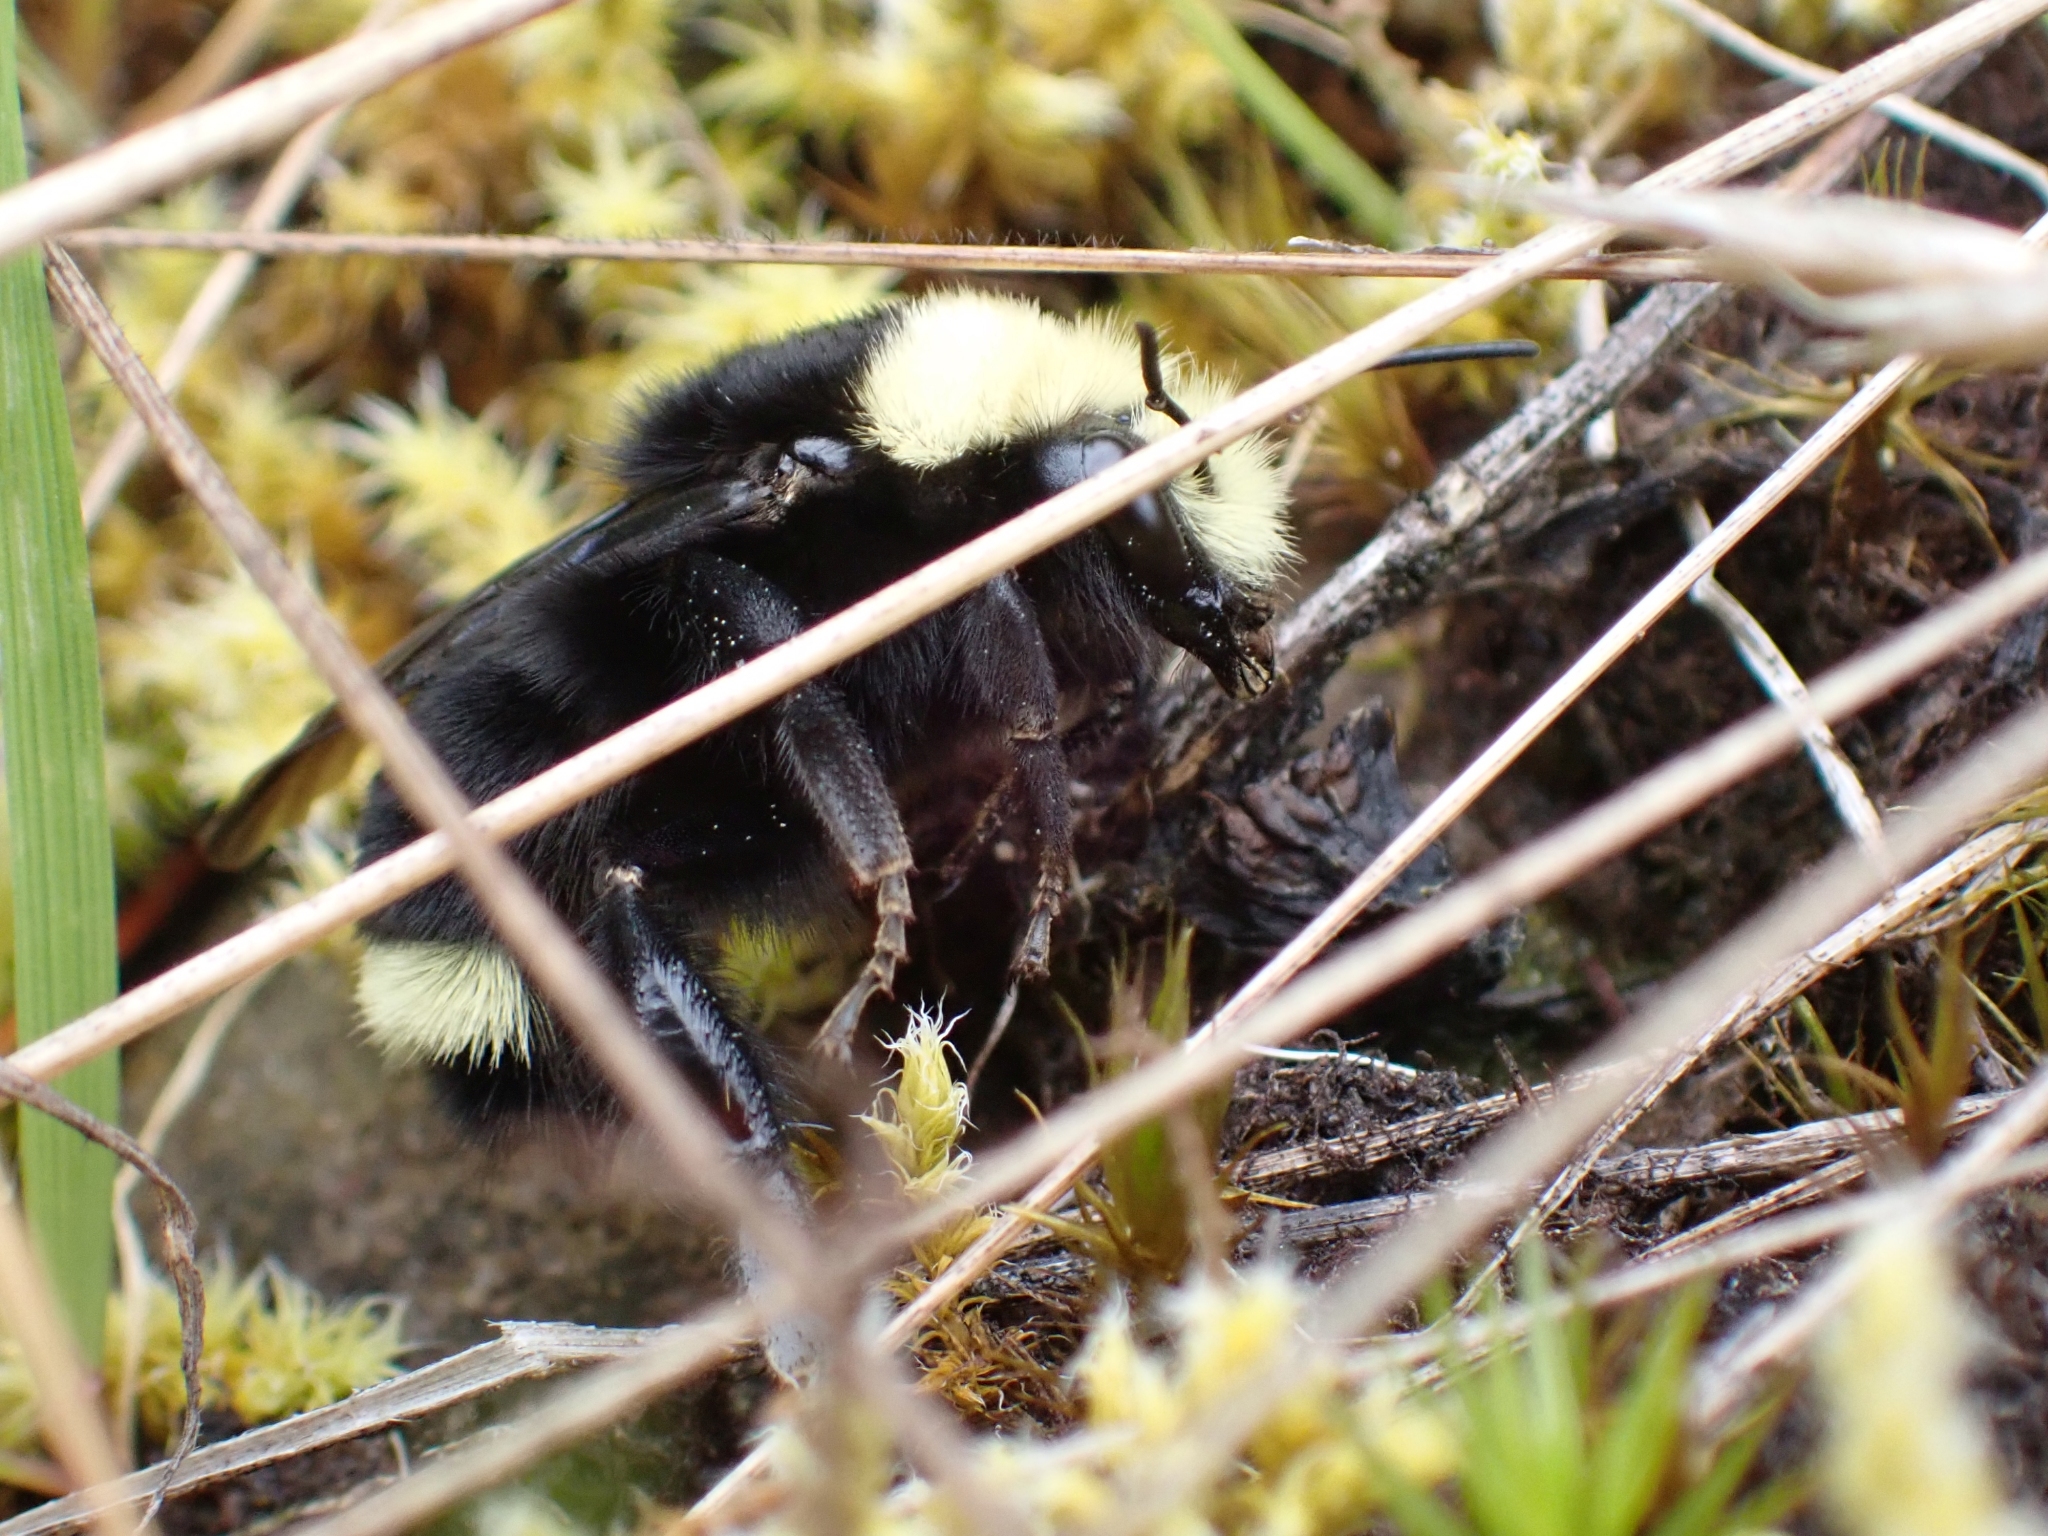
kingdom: Animalia
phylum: Arthropoda
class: Insecta
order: Hymenoptera
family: Apidae
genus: Bombus
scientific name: Bombus vosnesenskii
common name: Vosnesensky bumble bee
